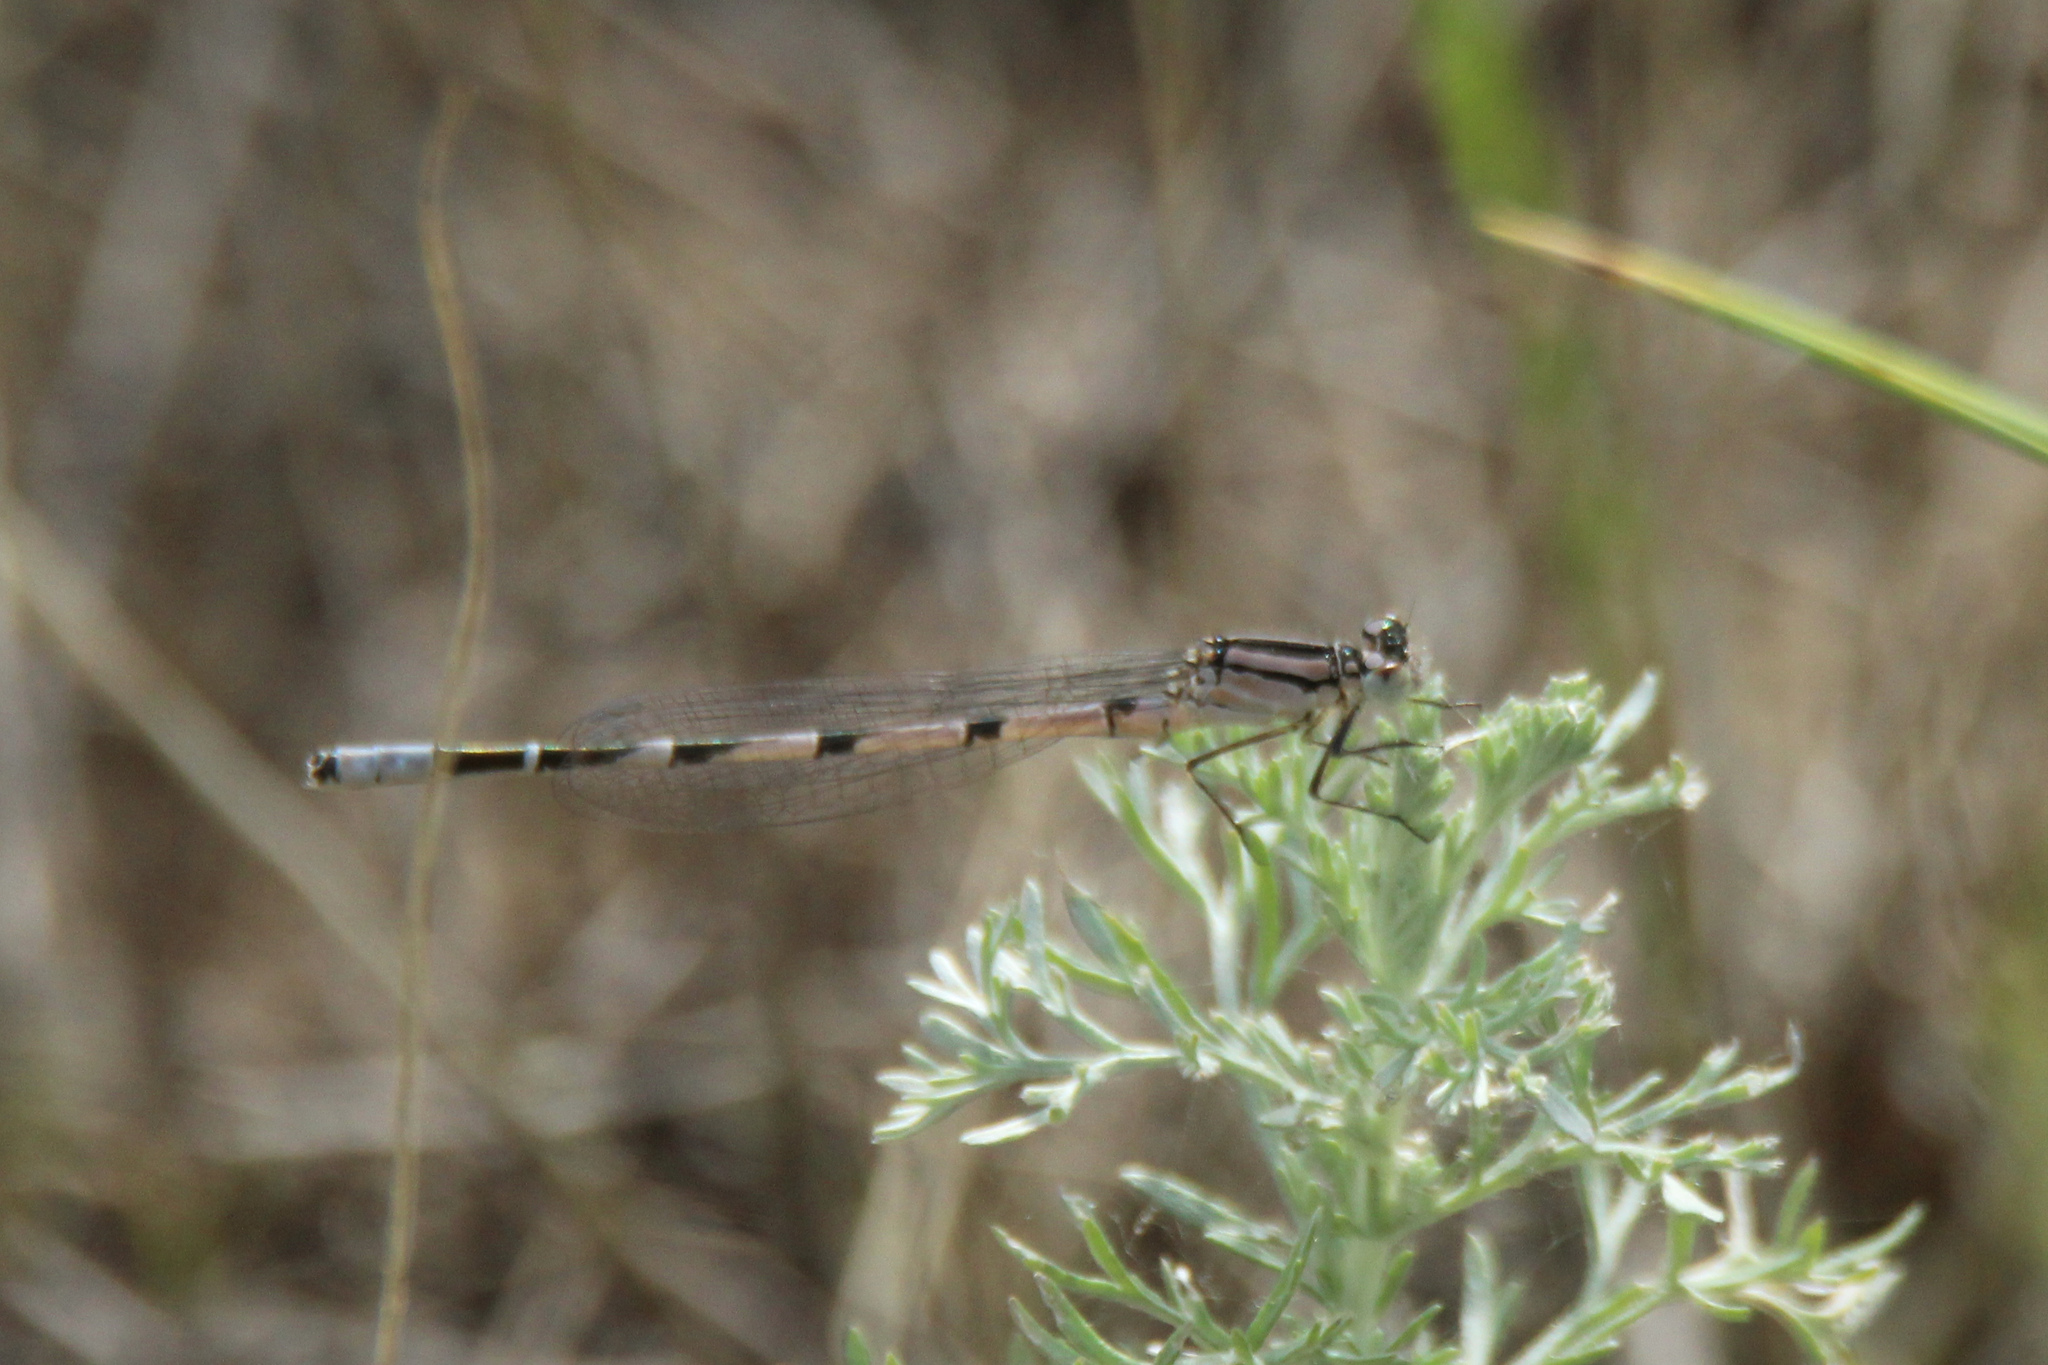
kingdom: Animalia
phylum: Arthropoda
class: Insecta
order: Odonata
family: Coenagrionidae
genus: Enallagma
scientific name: Enallagma cyathigerum
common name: Common blue damselfly
